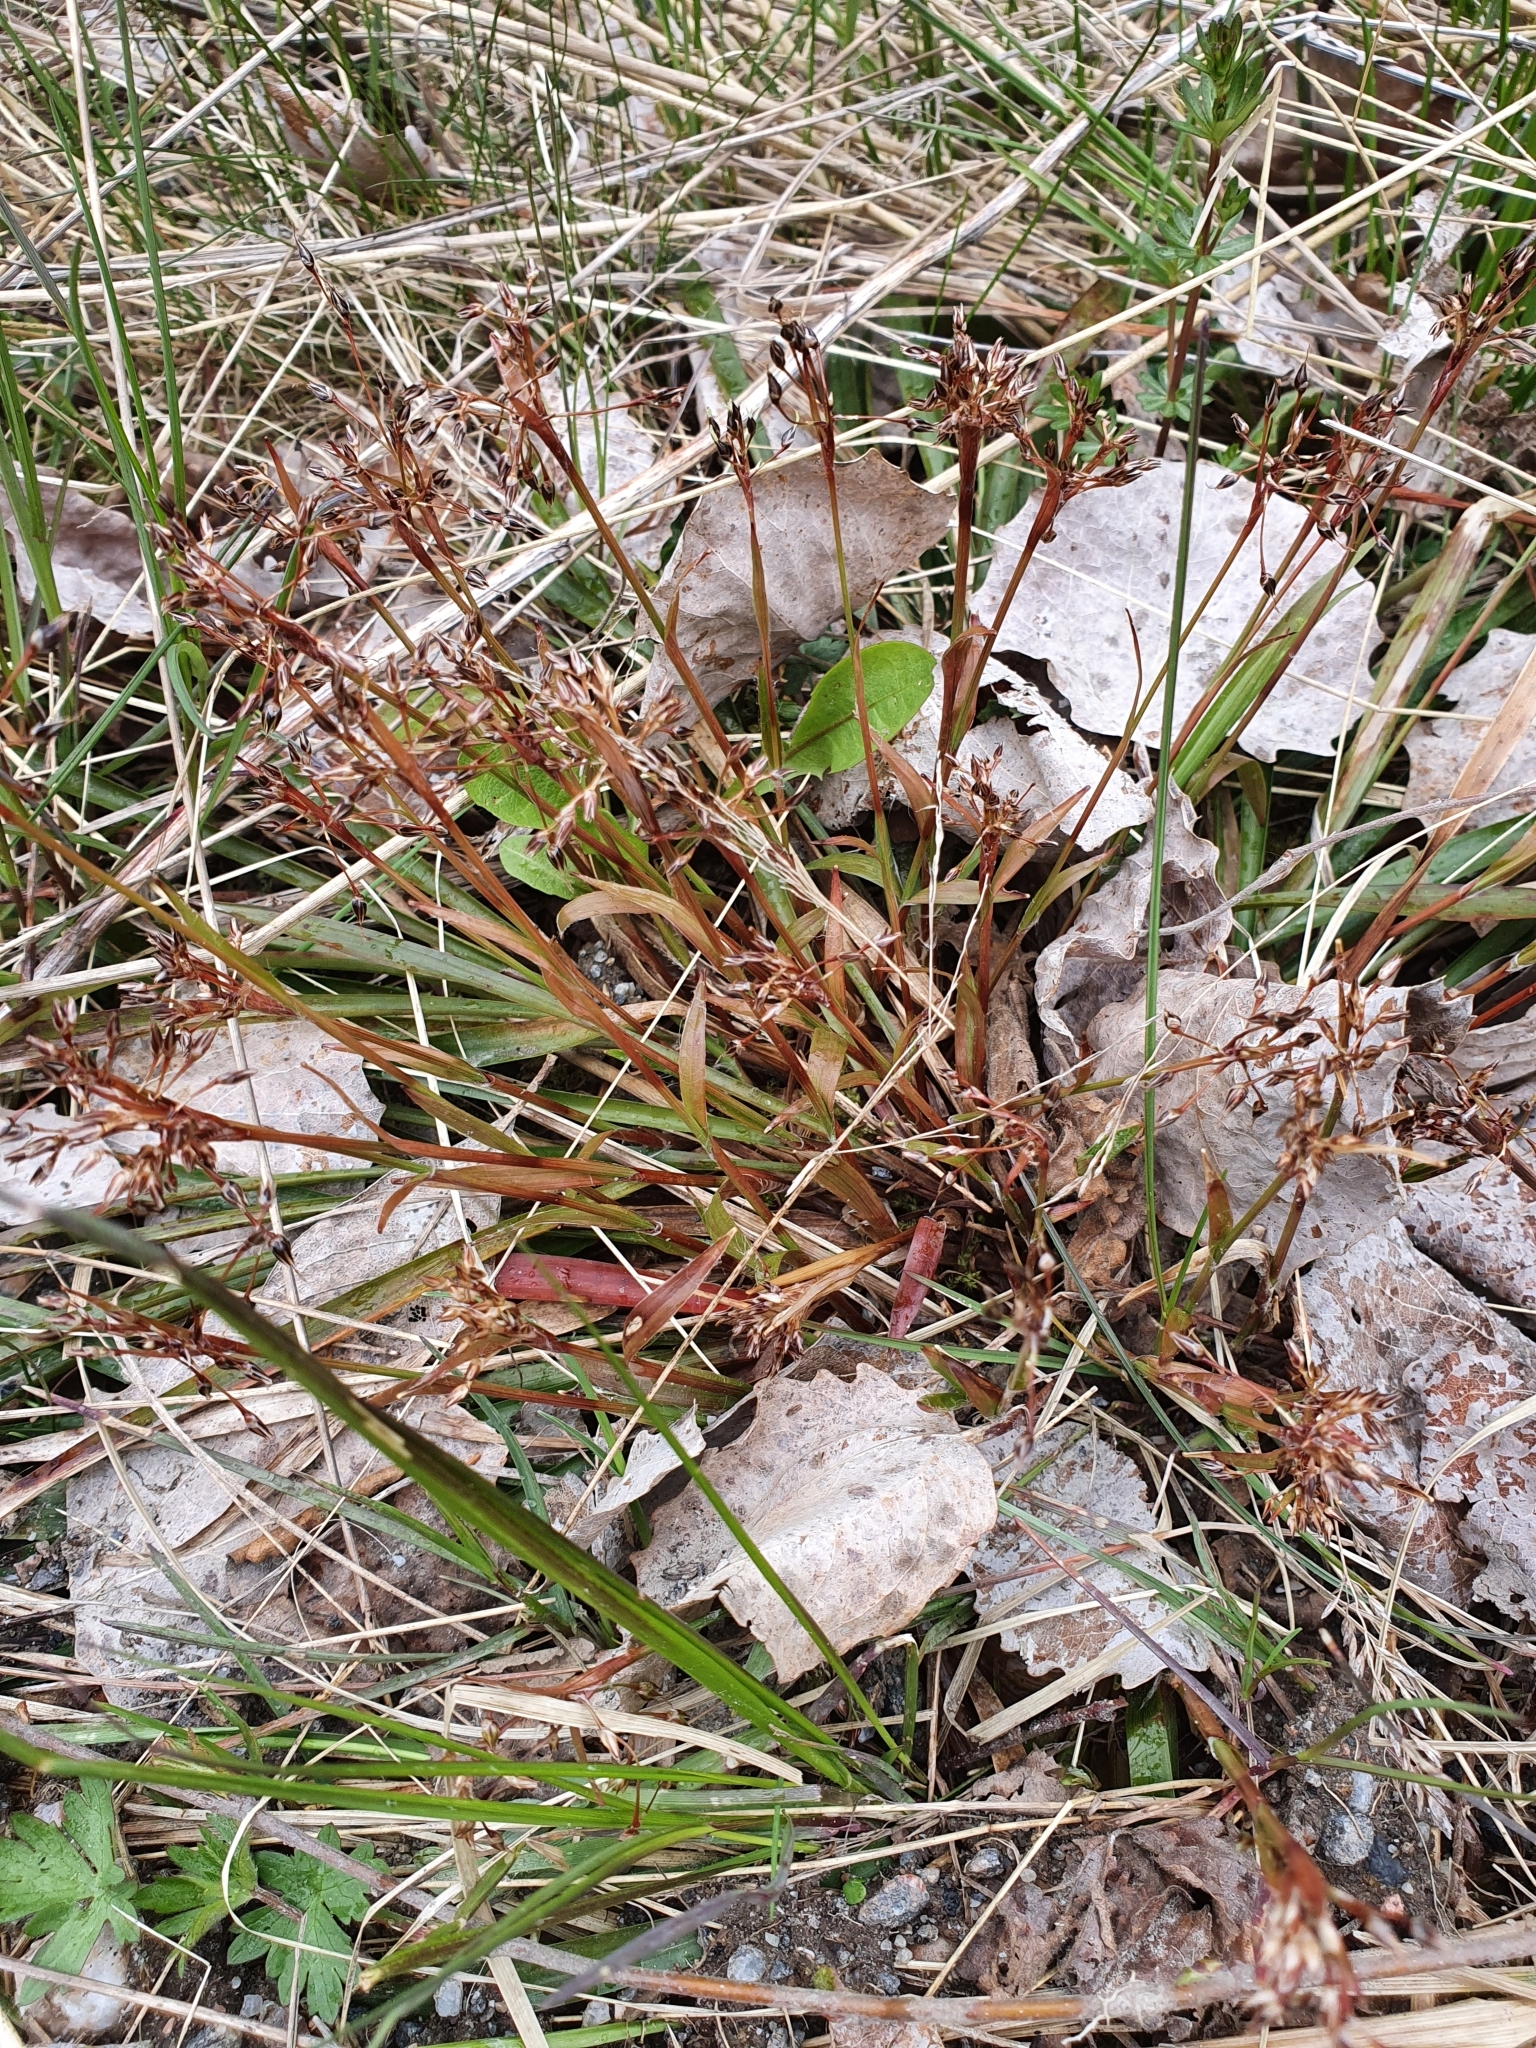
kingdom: Plantae
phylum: Tracheophyta
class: Liliopsida
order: Poales
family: Juncaceae
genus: Luzula
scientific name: Luzula pilosa
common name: Hairy wood-rush
